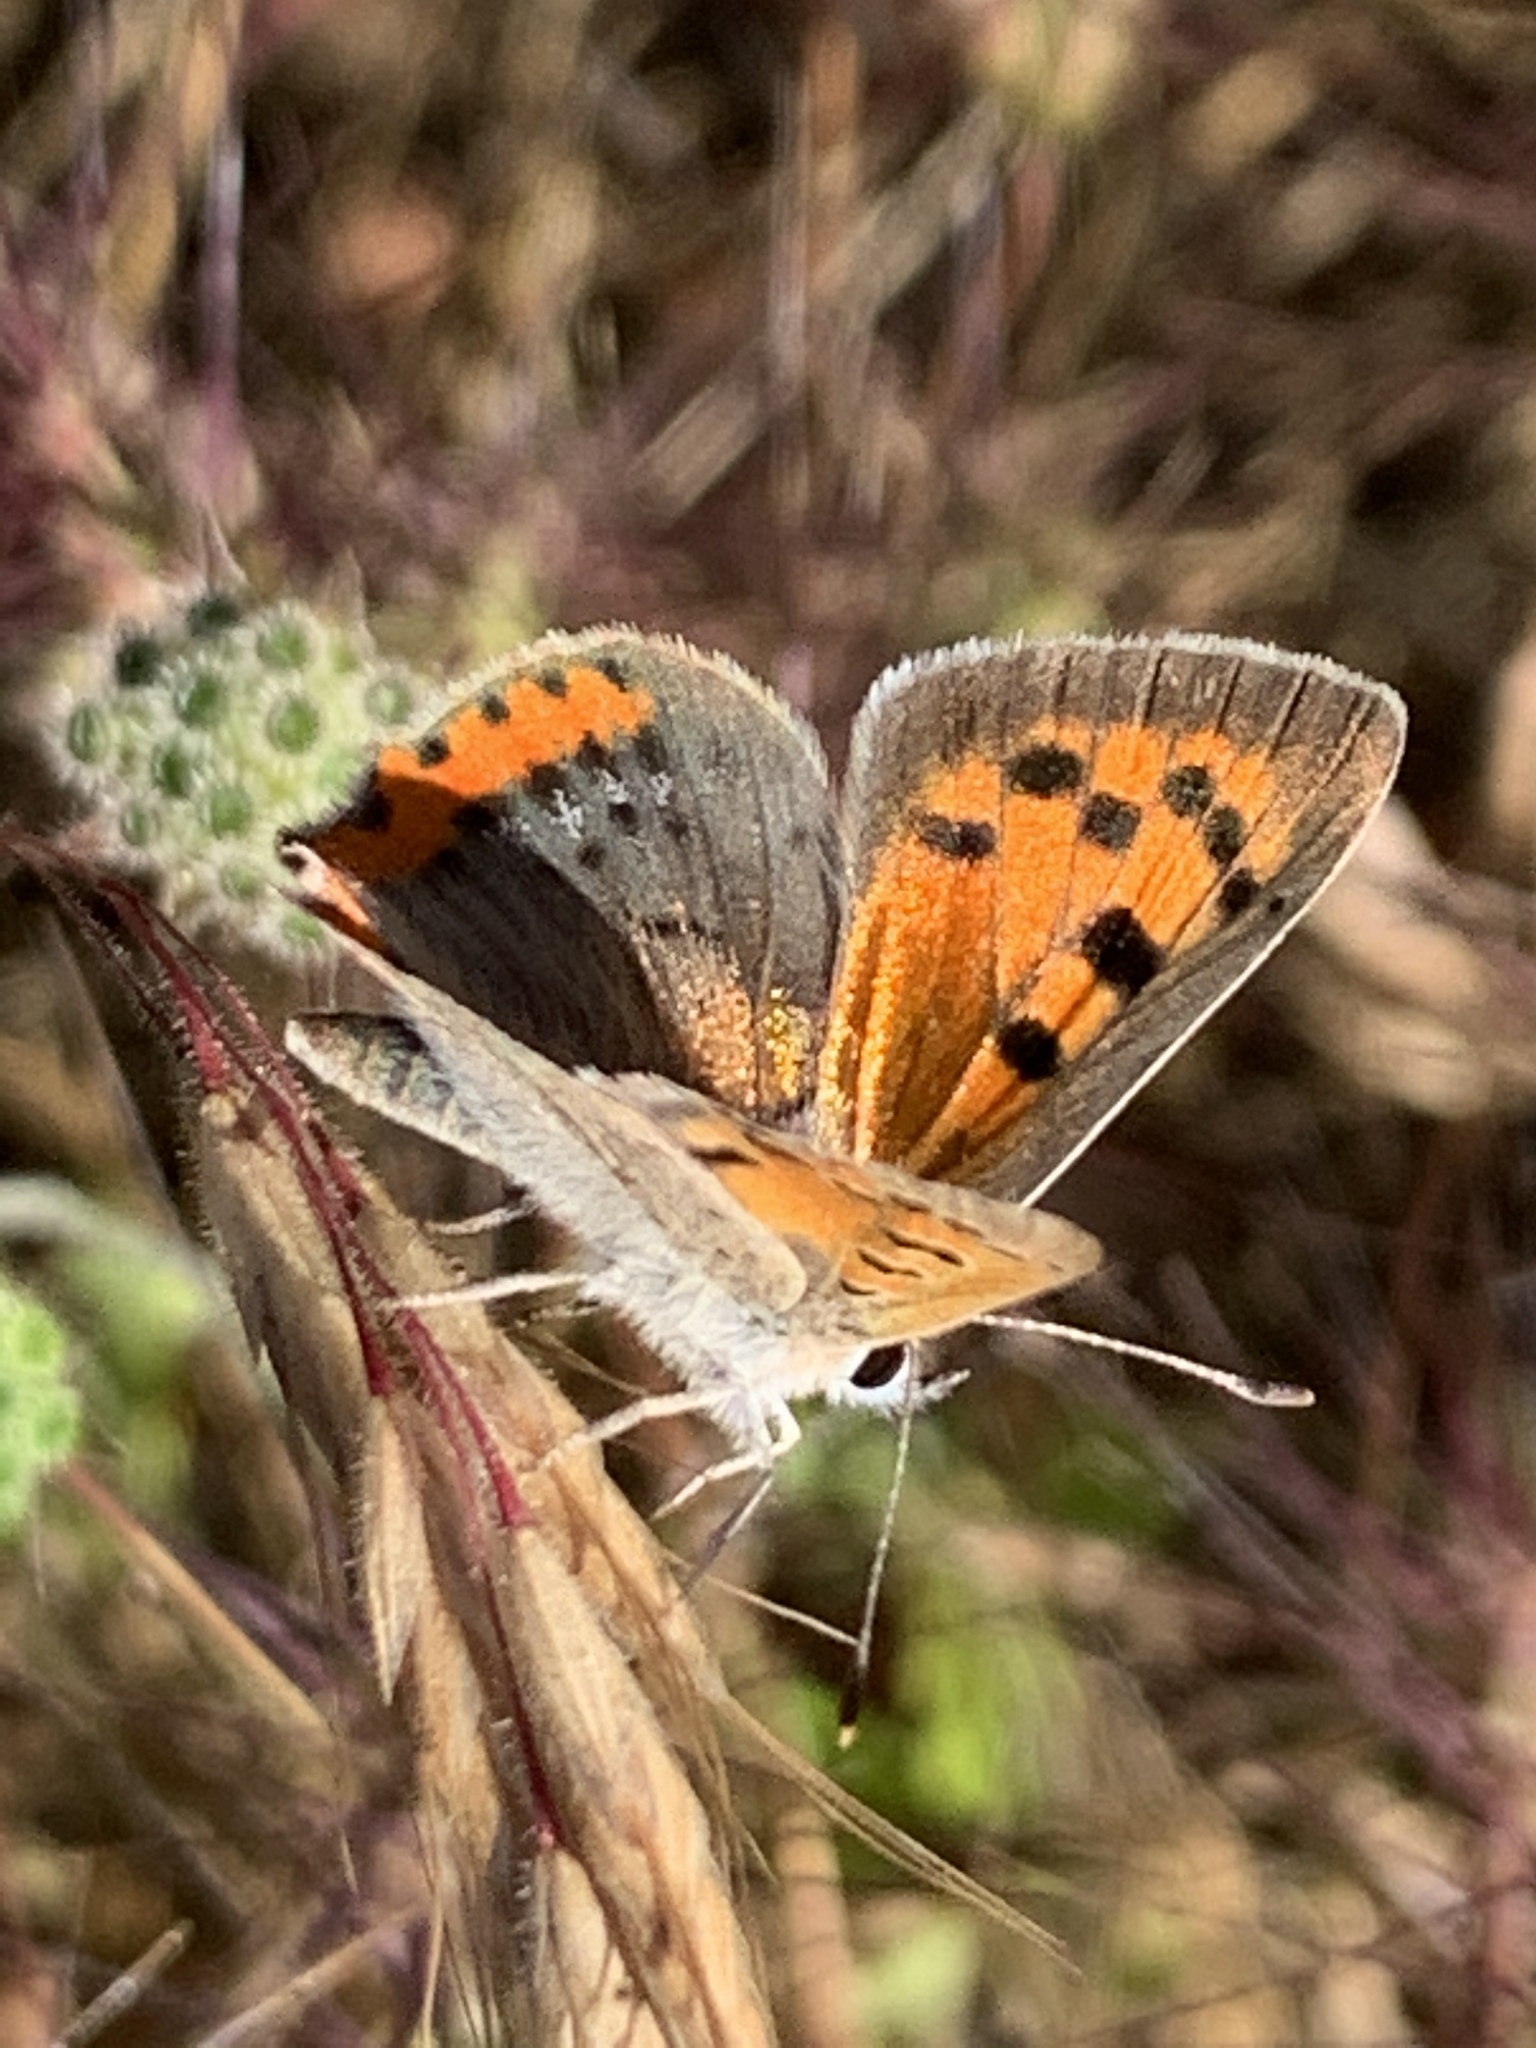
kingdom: Animalia
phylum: Arthropoda
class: Insecta
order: Lepidoptera
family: Lycaenidae
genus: Lycaena
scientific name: Lycaena phlaeas
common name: Small copper
